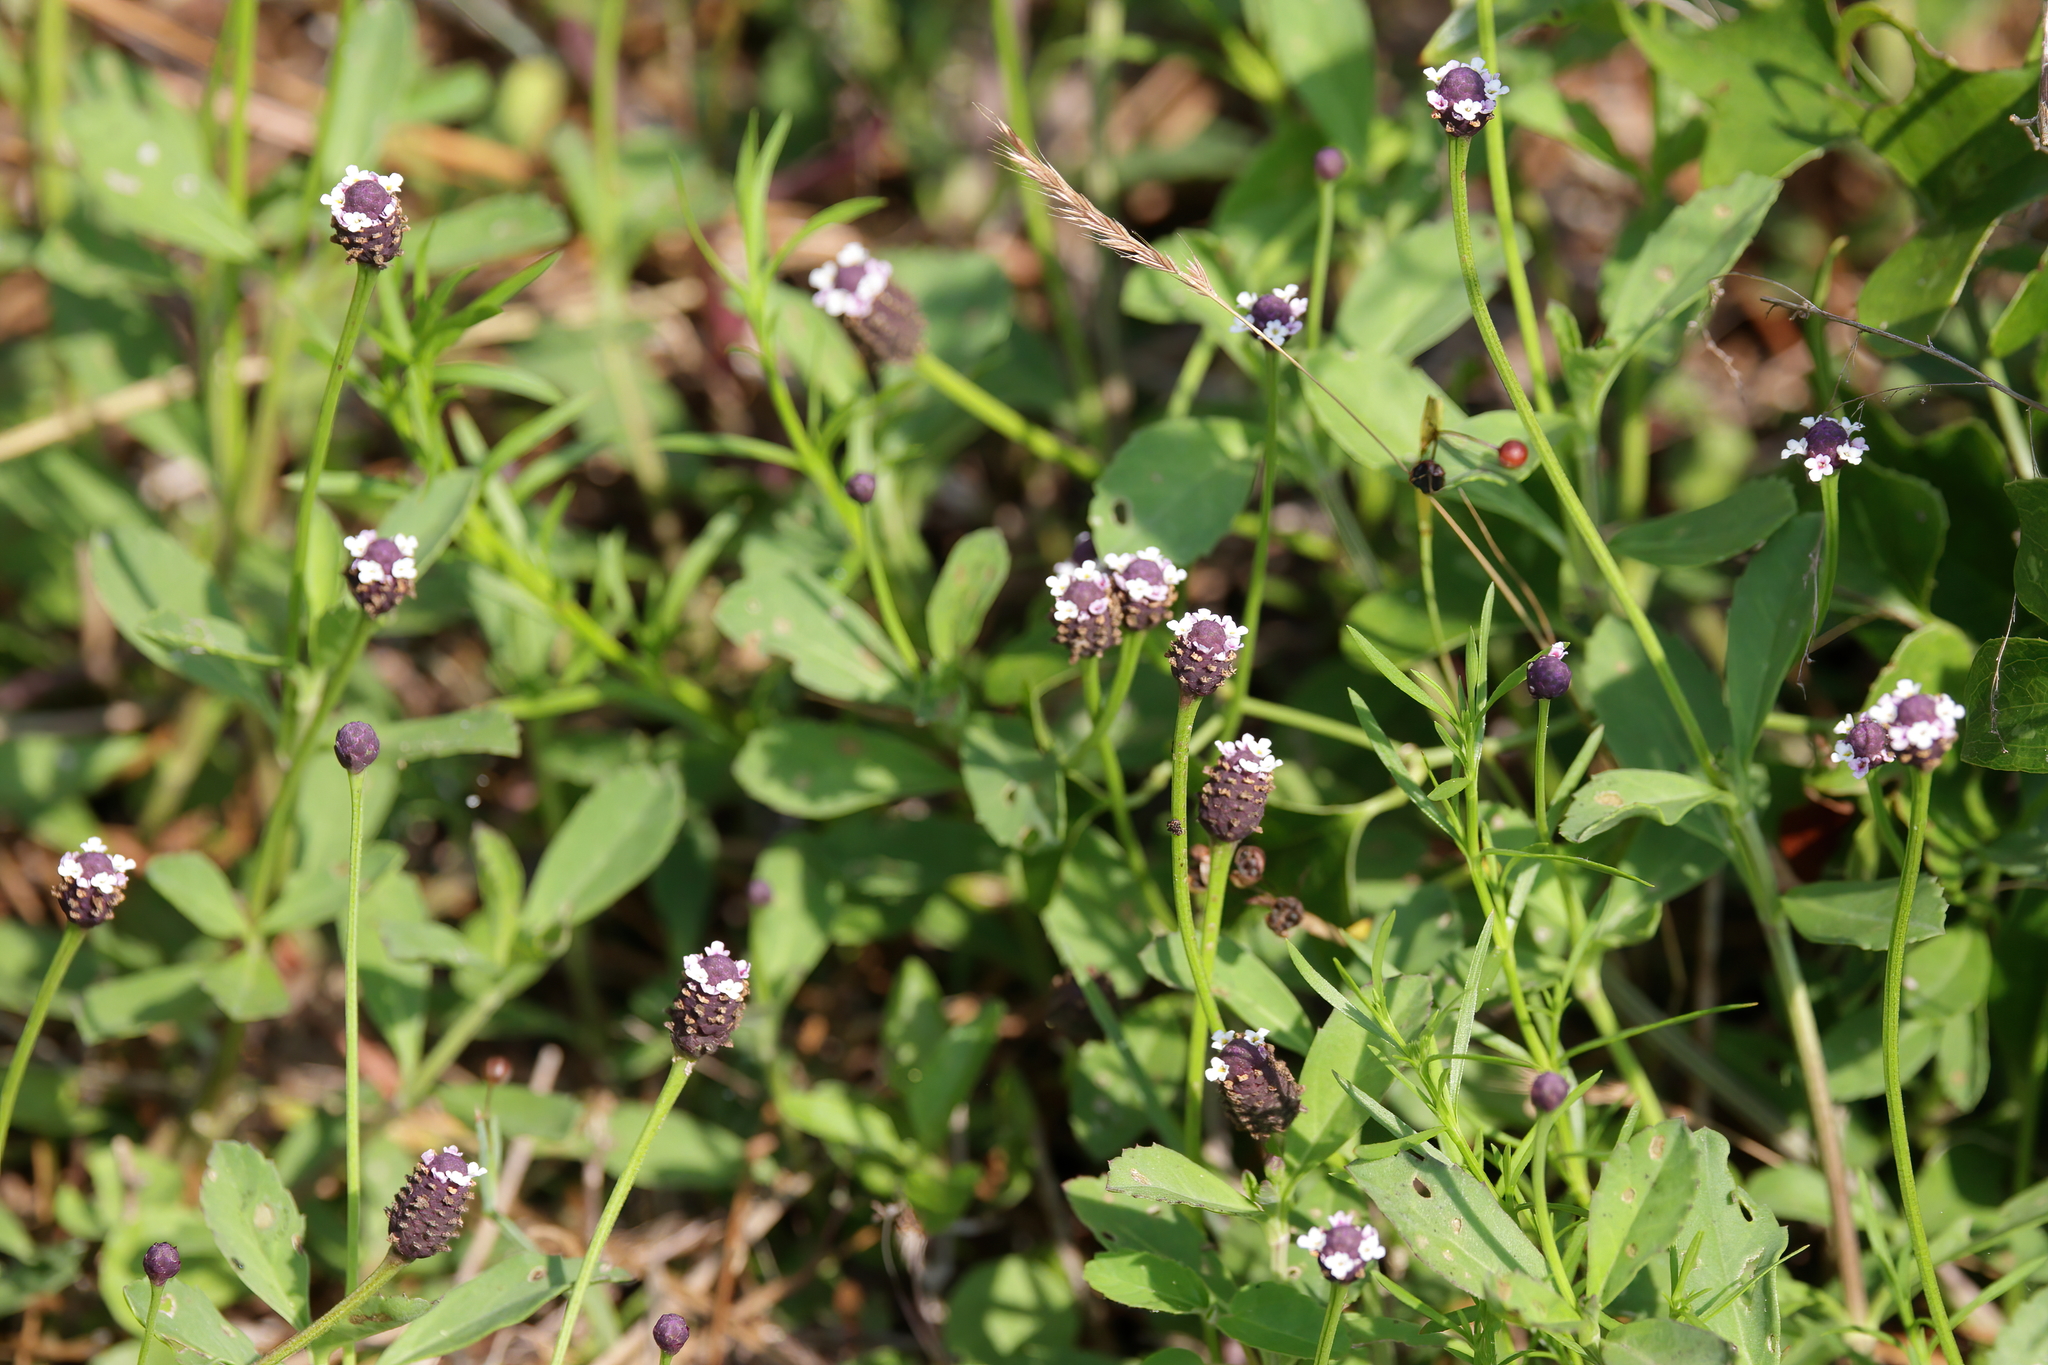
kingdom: Plantae
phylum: Tracheophyta
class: Magnoliopsida
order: Lamiales
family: Verbenaceae
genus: Phyla
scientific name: Phyla nodiflora
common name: Frogfruit
